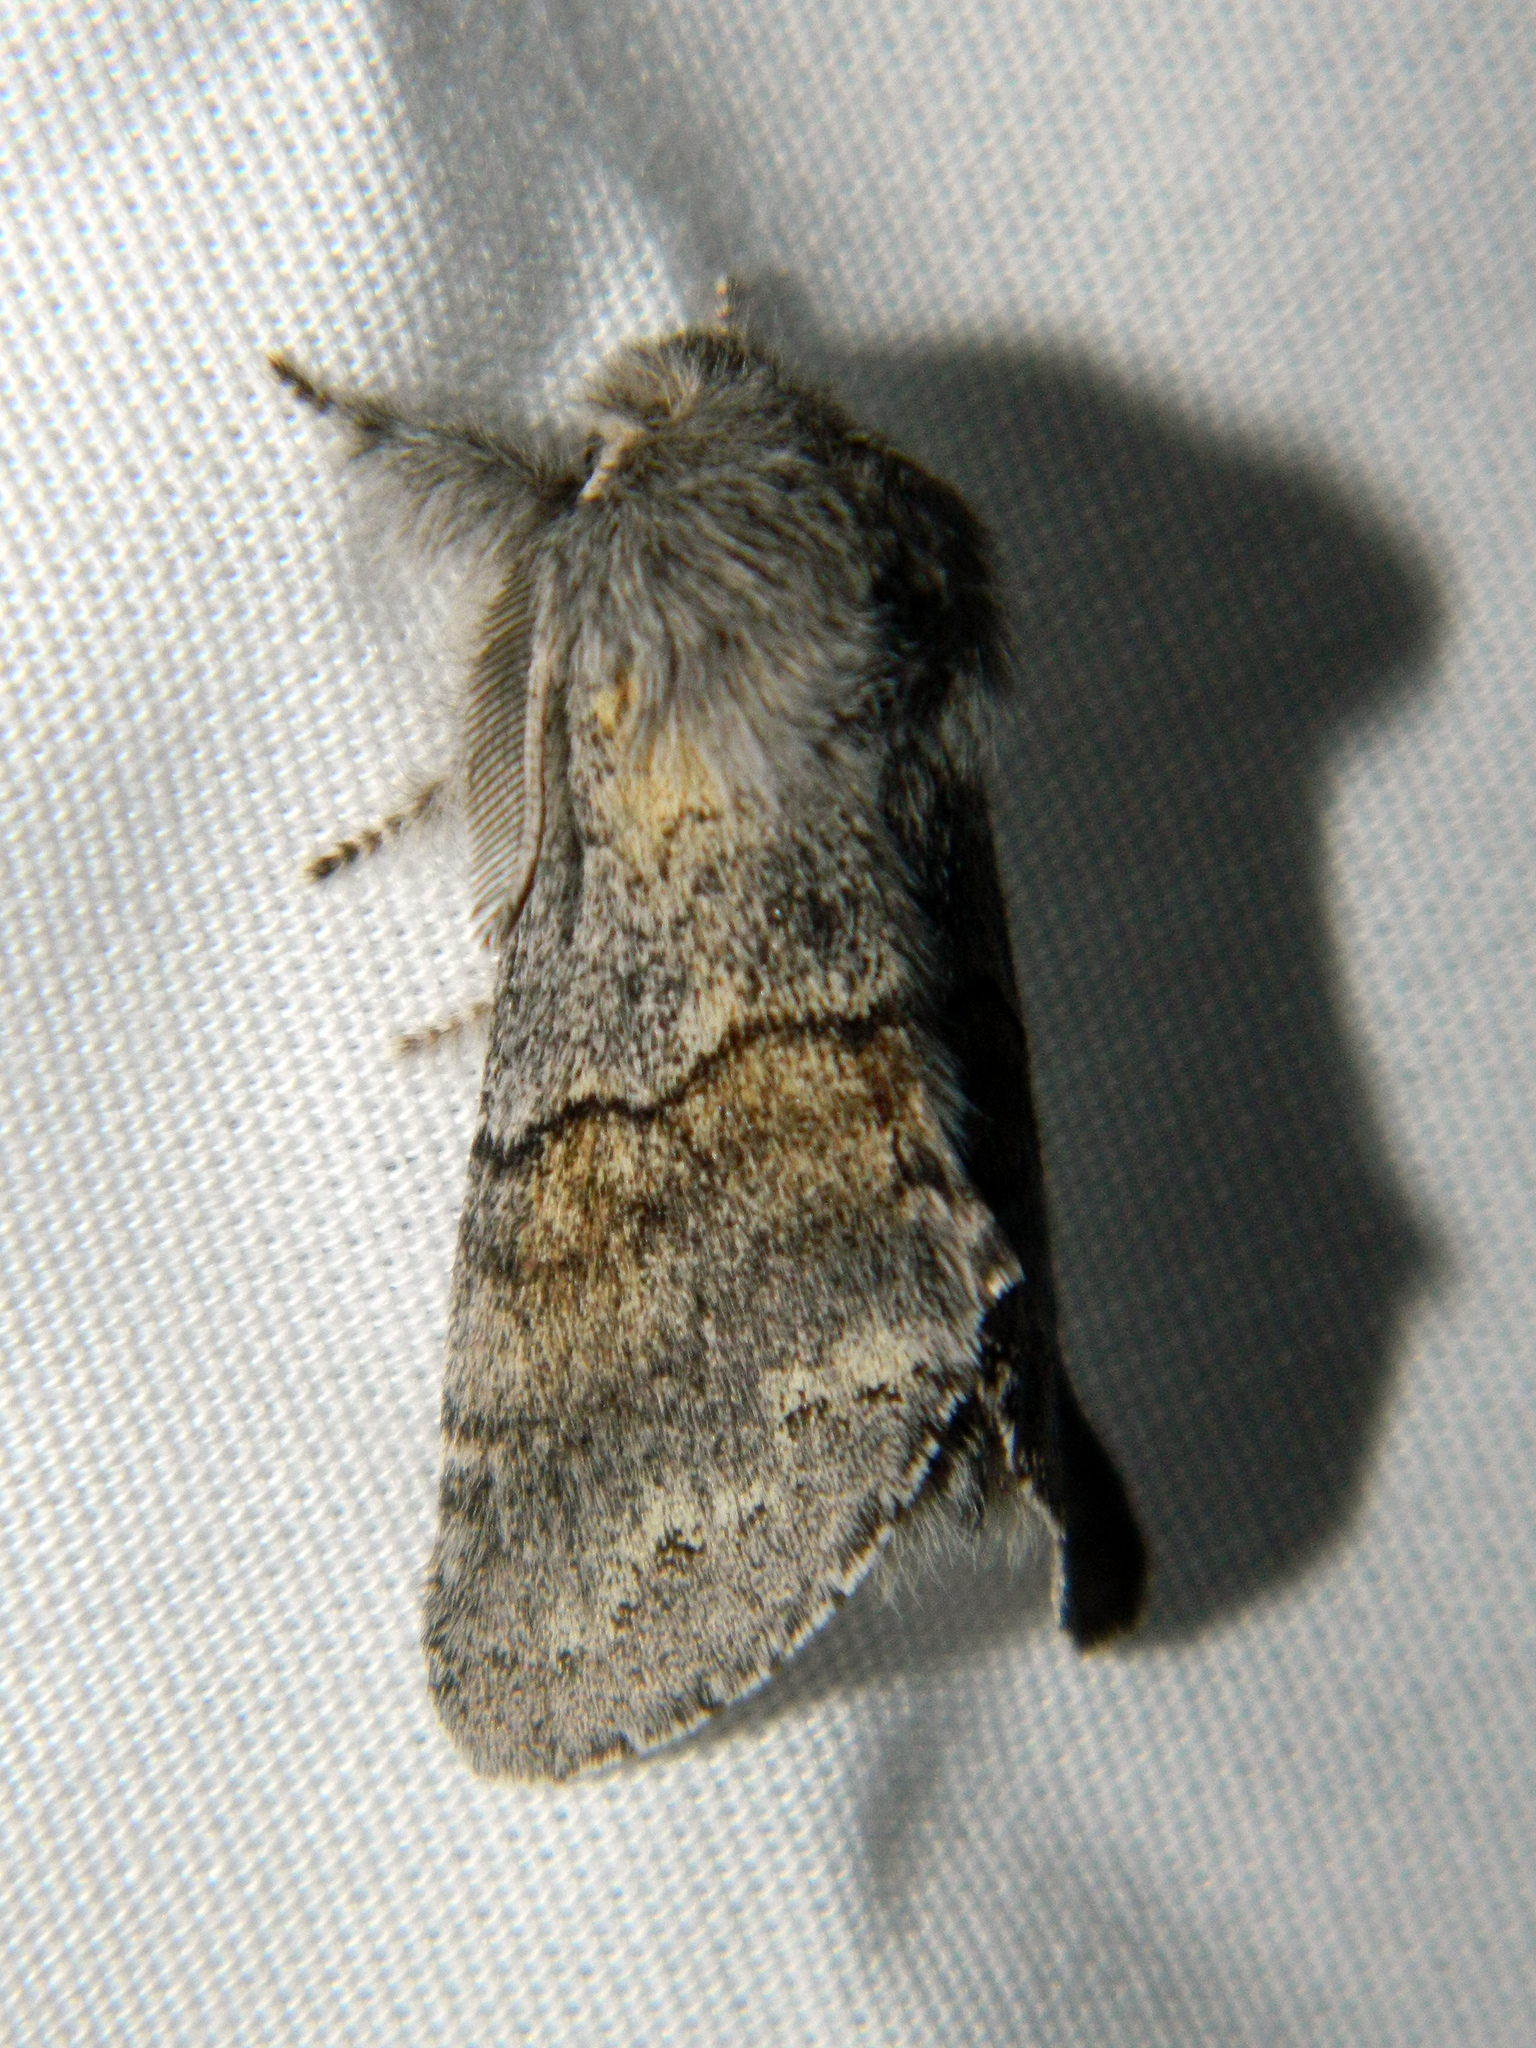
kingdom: Animalia
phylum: Arthropoda
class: Insecta
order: Lepidoptera
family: Notodontidae
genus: Gluphisia
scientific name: Gluphisia lintneri
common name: Lintner's gluphisia moth
